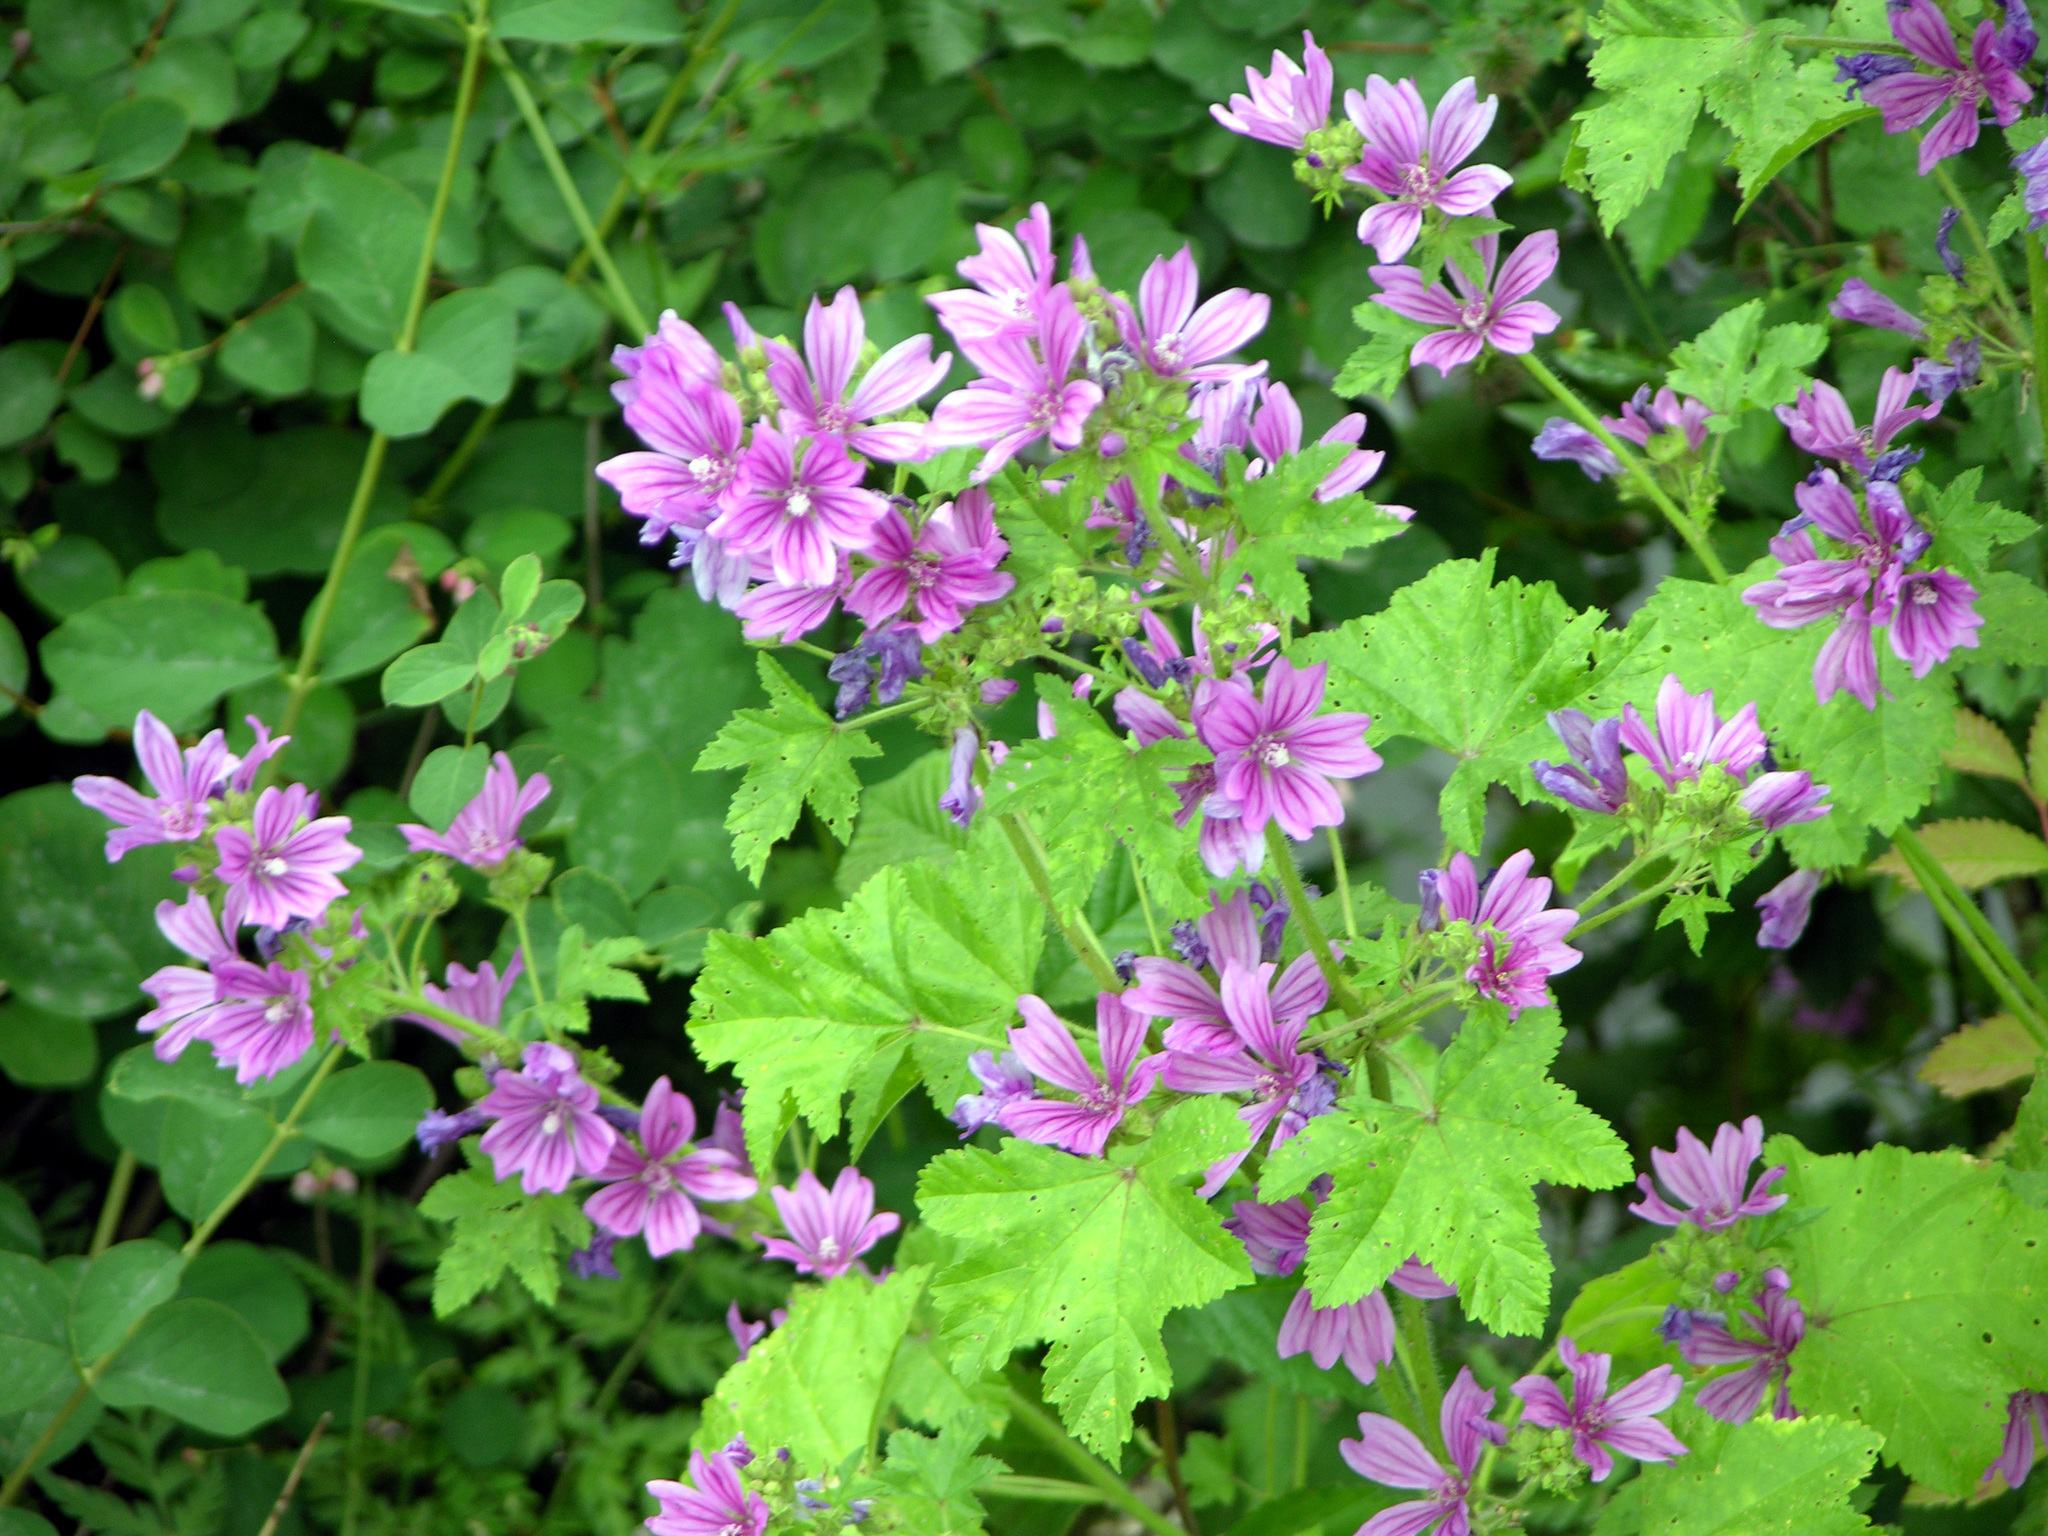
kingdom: Plantae
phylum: Tracheophyta
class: Magnoliopsida
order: Malvales
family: Malvaceae
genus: Malva
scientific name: Malva sylvestris
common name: Common mallow
